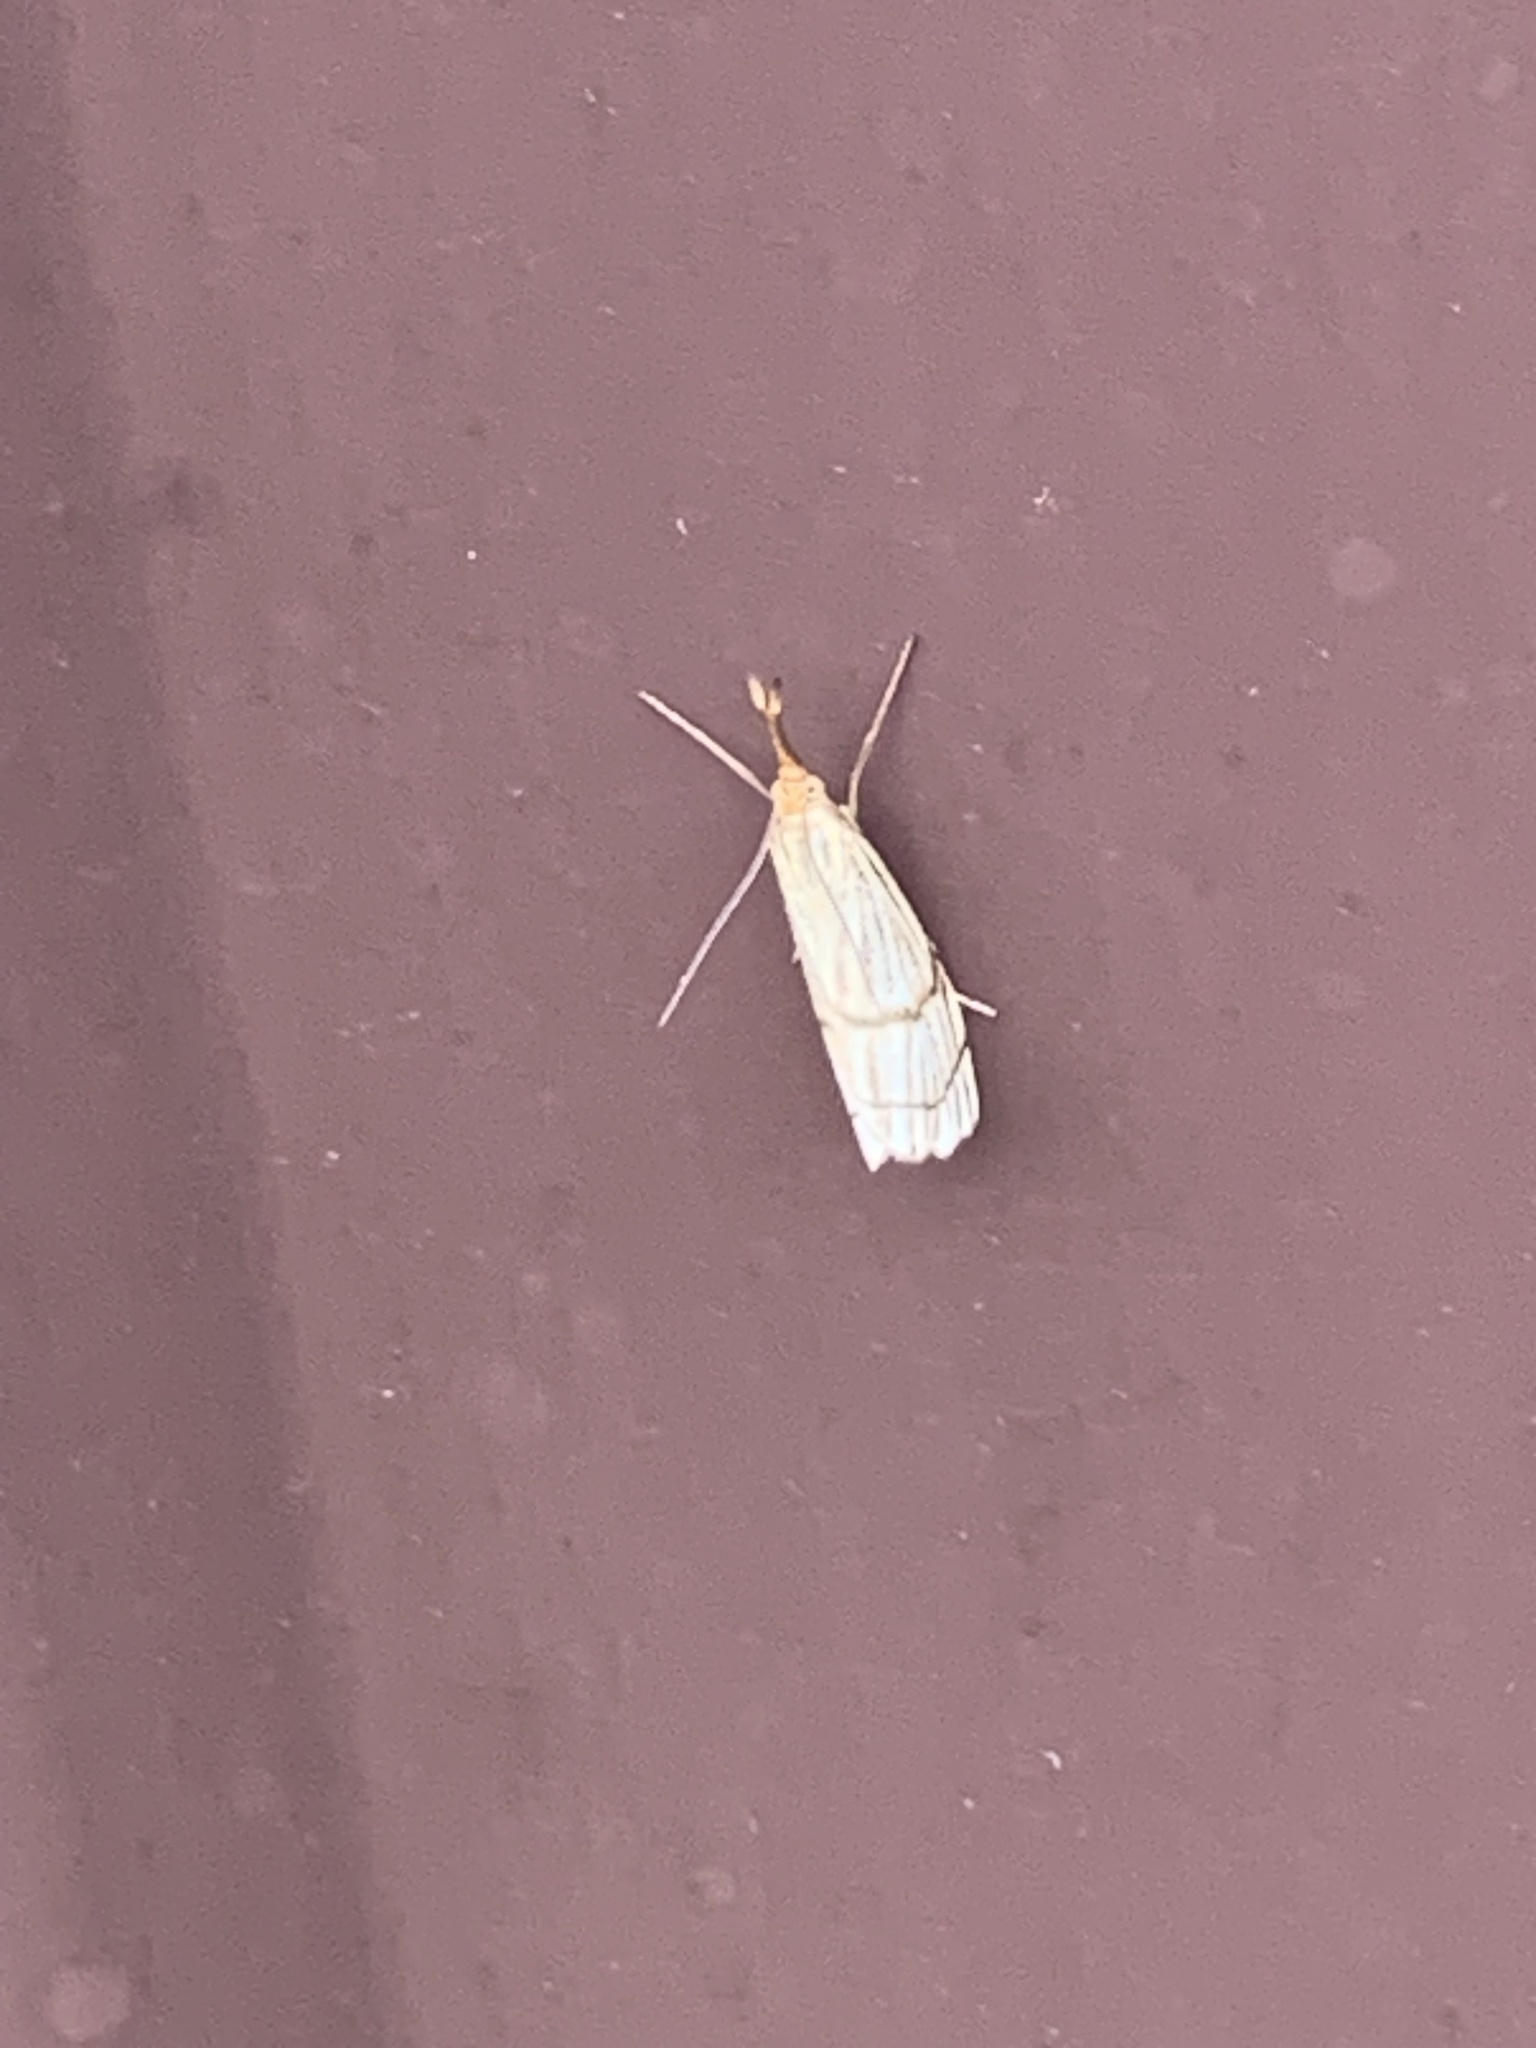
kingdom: Animalia
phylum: Arthropoda
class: Insecta
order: Lepidoptera
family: Crambidae
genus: Chrysocrambus
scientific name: Chrysocrambus linetella
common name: Orange-bar grass-veneer
